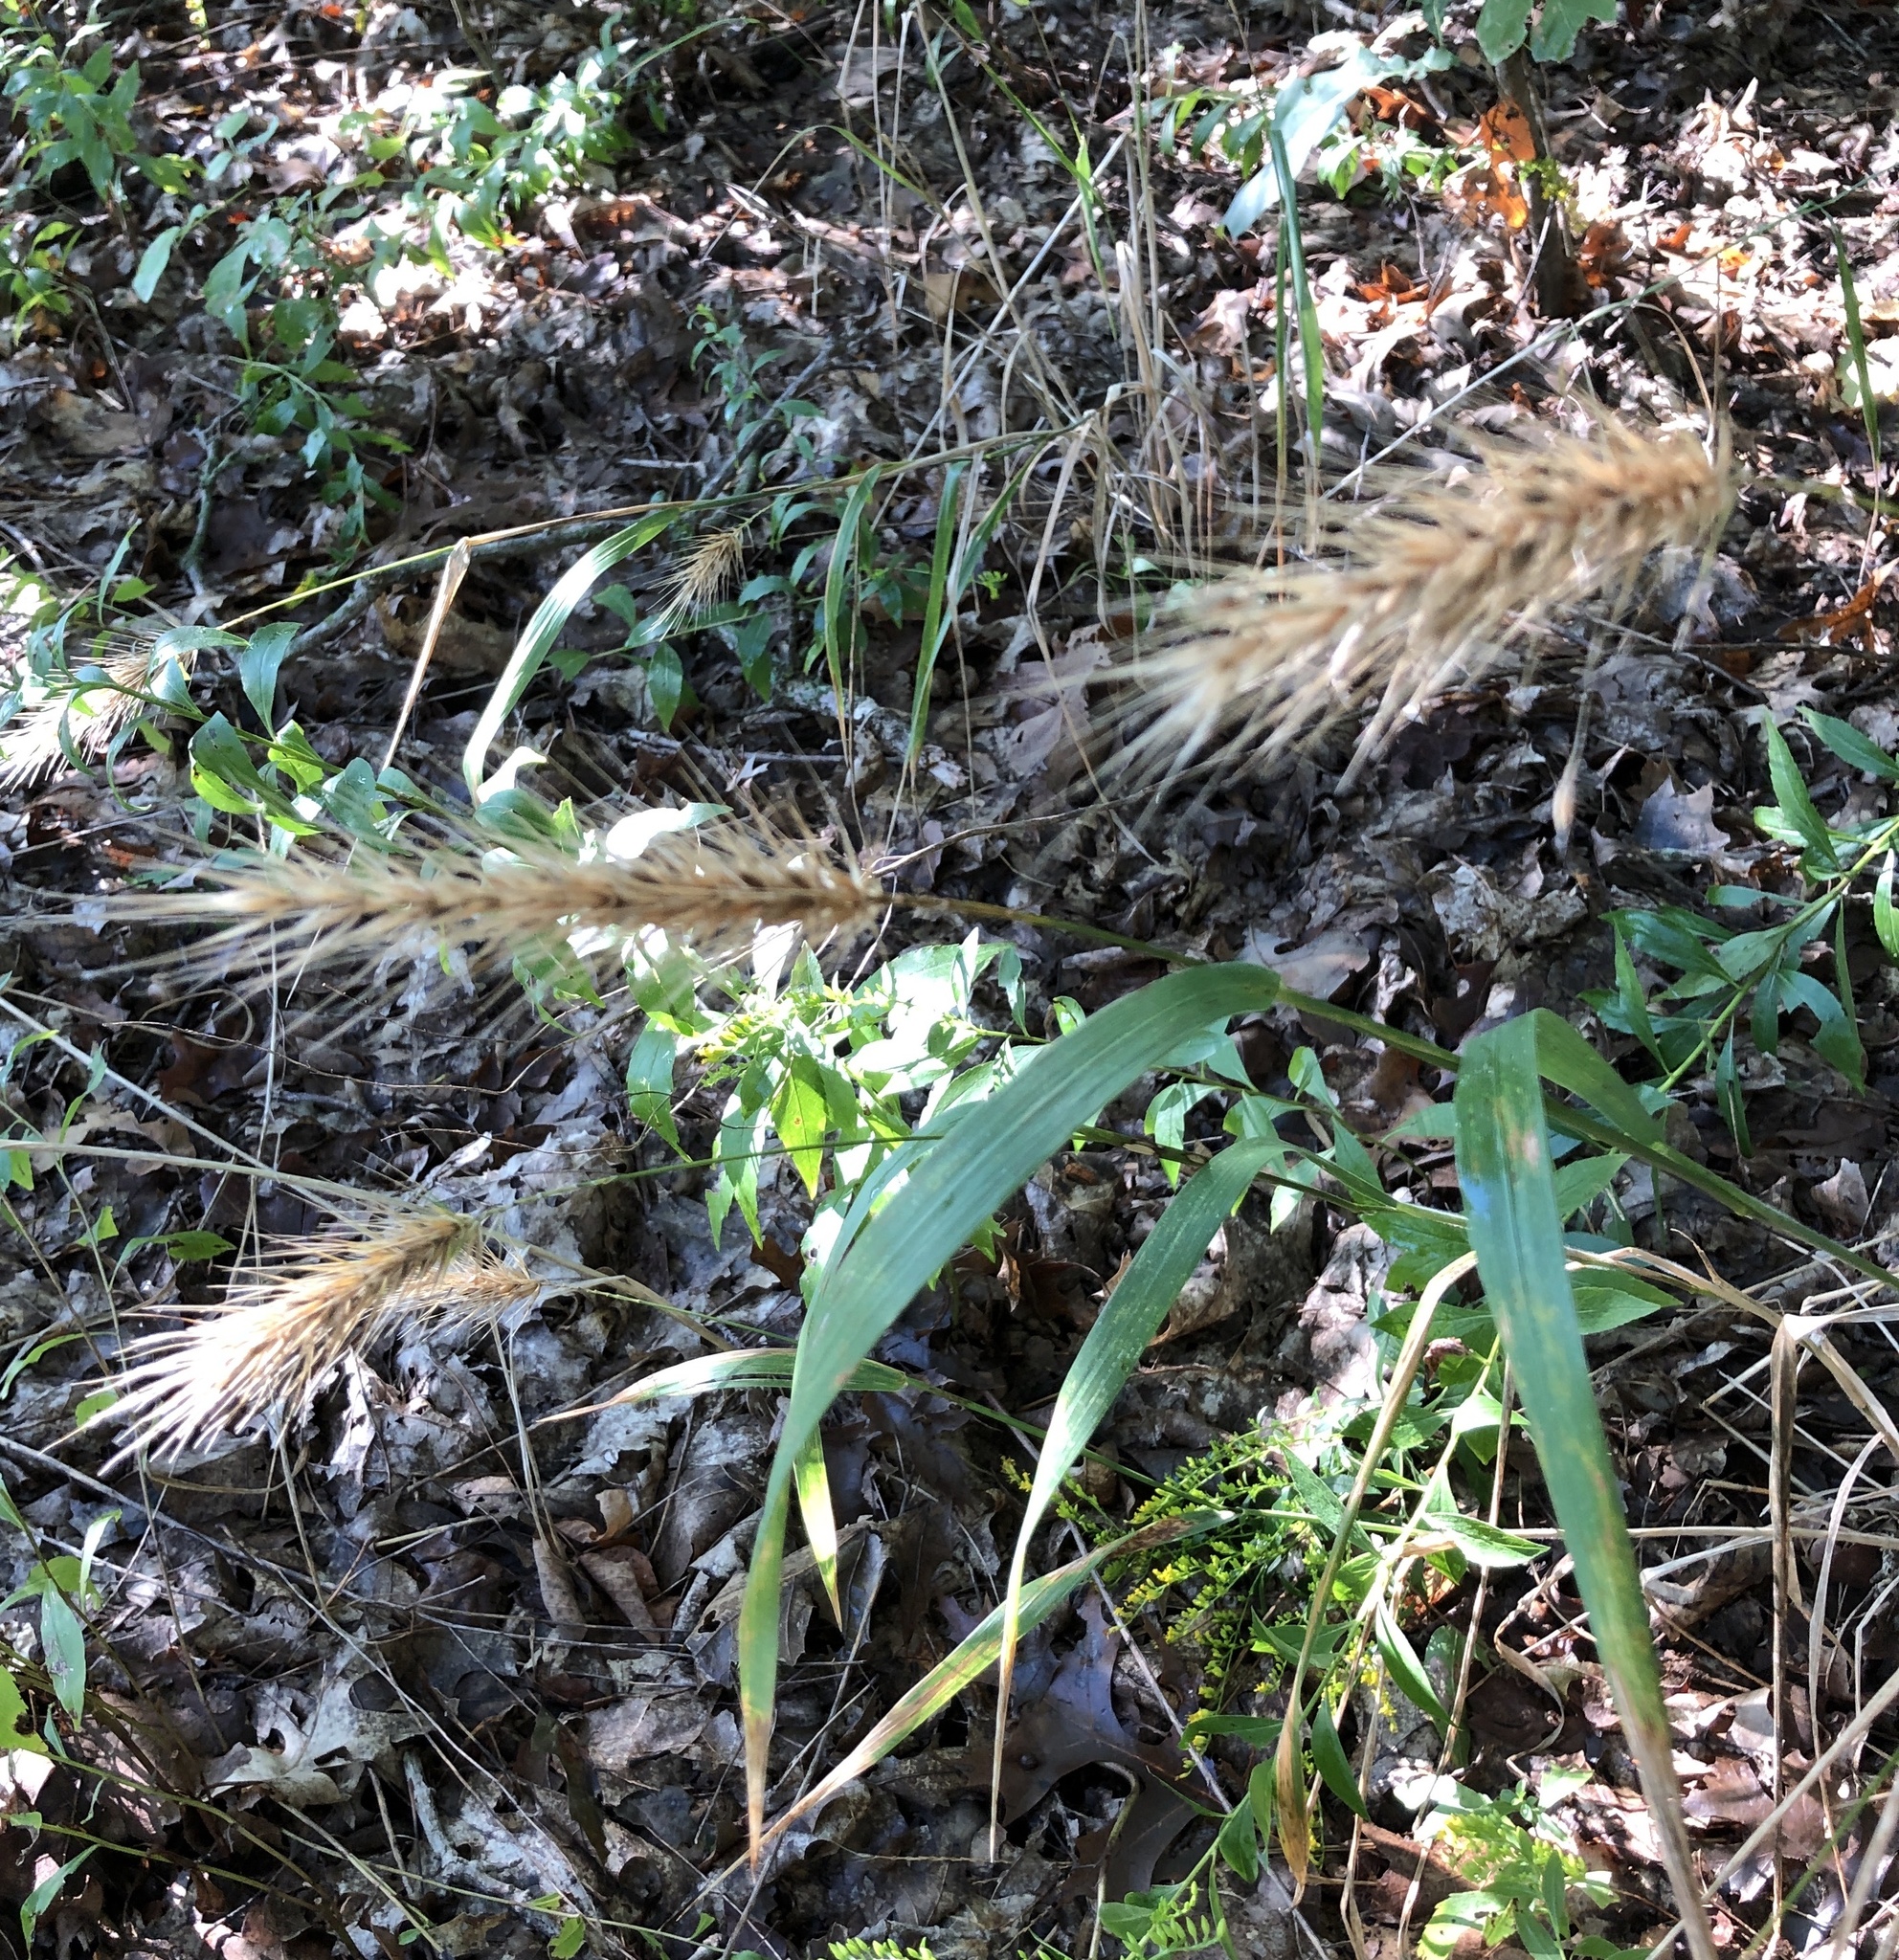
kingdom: Plantae
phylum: Tracheophyta
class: Liliopsida
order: Poales
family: Poaceae
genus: Elymus
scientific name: Elymus canadensis
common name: Canada wild rye
